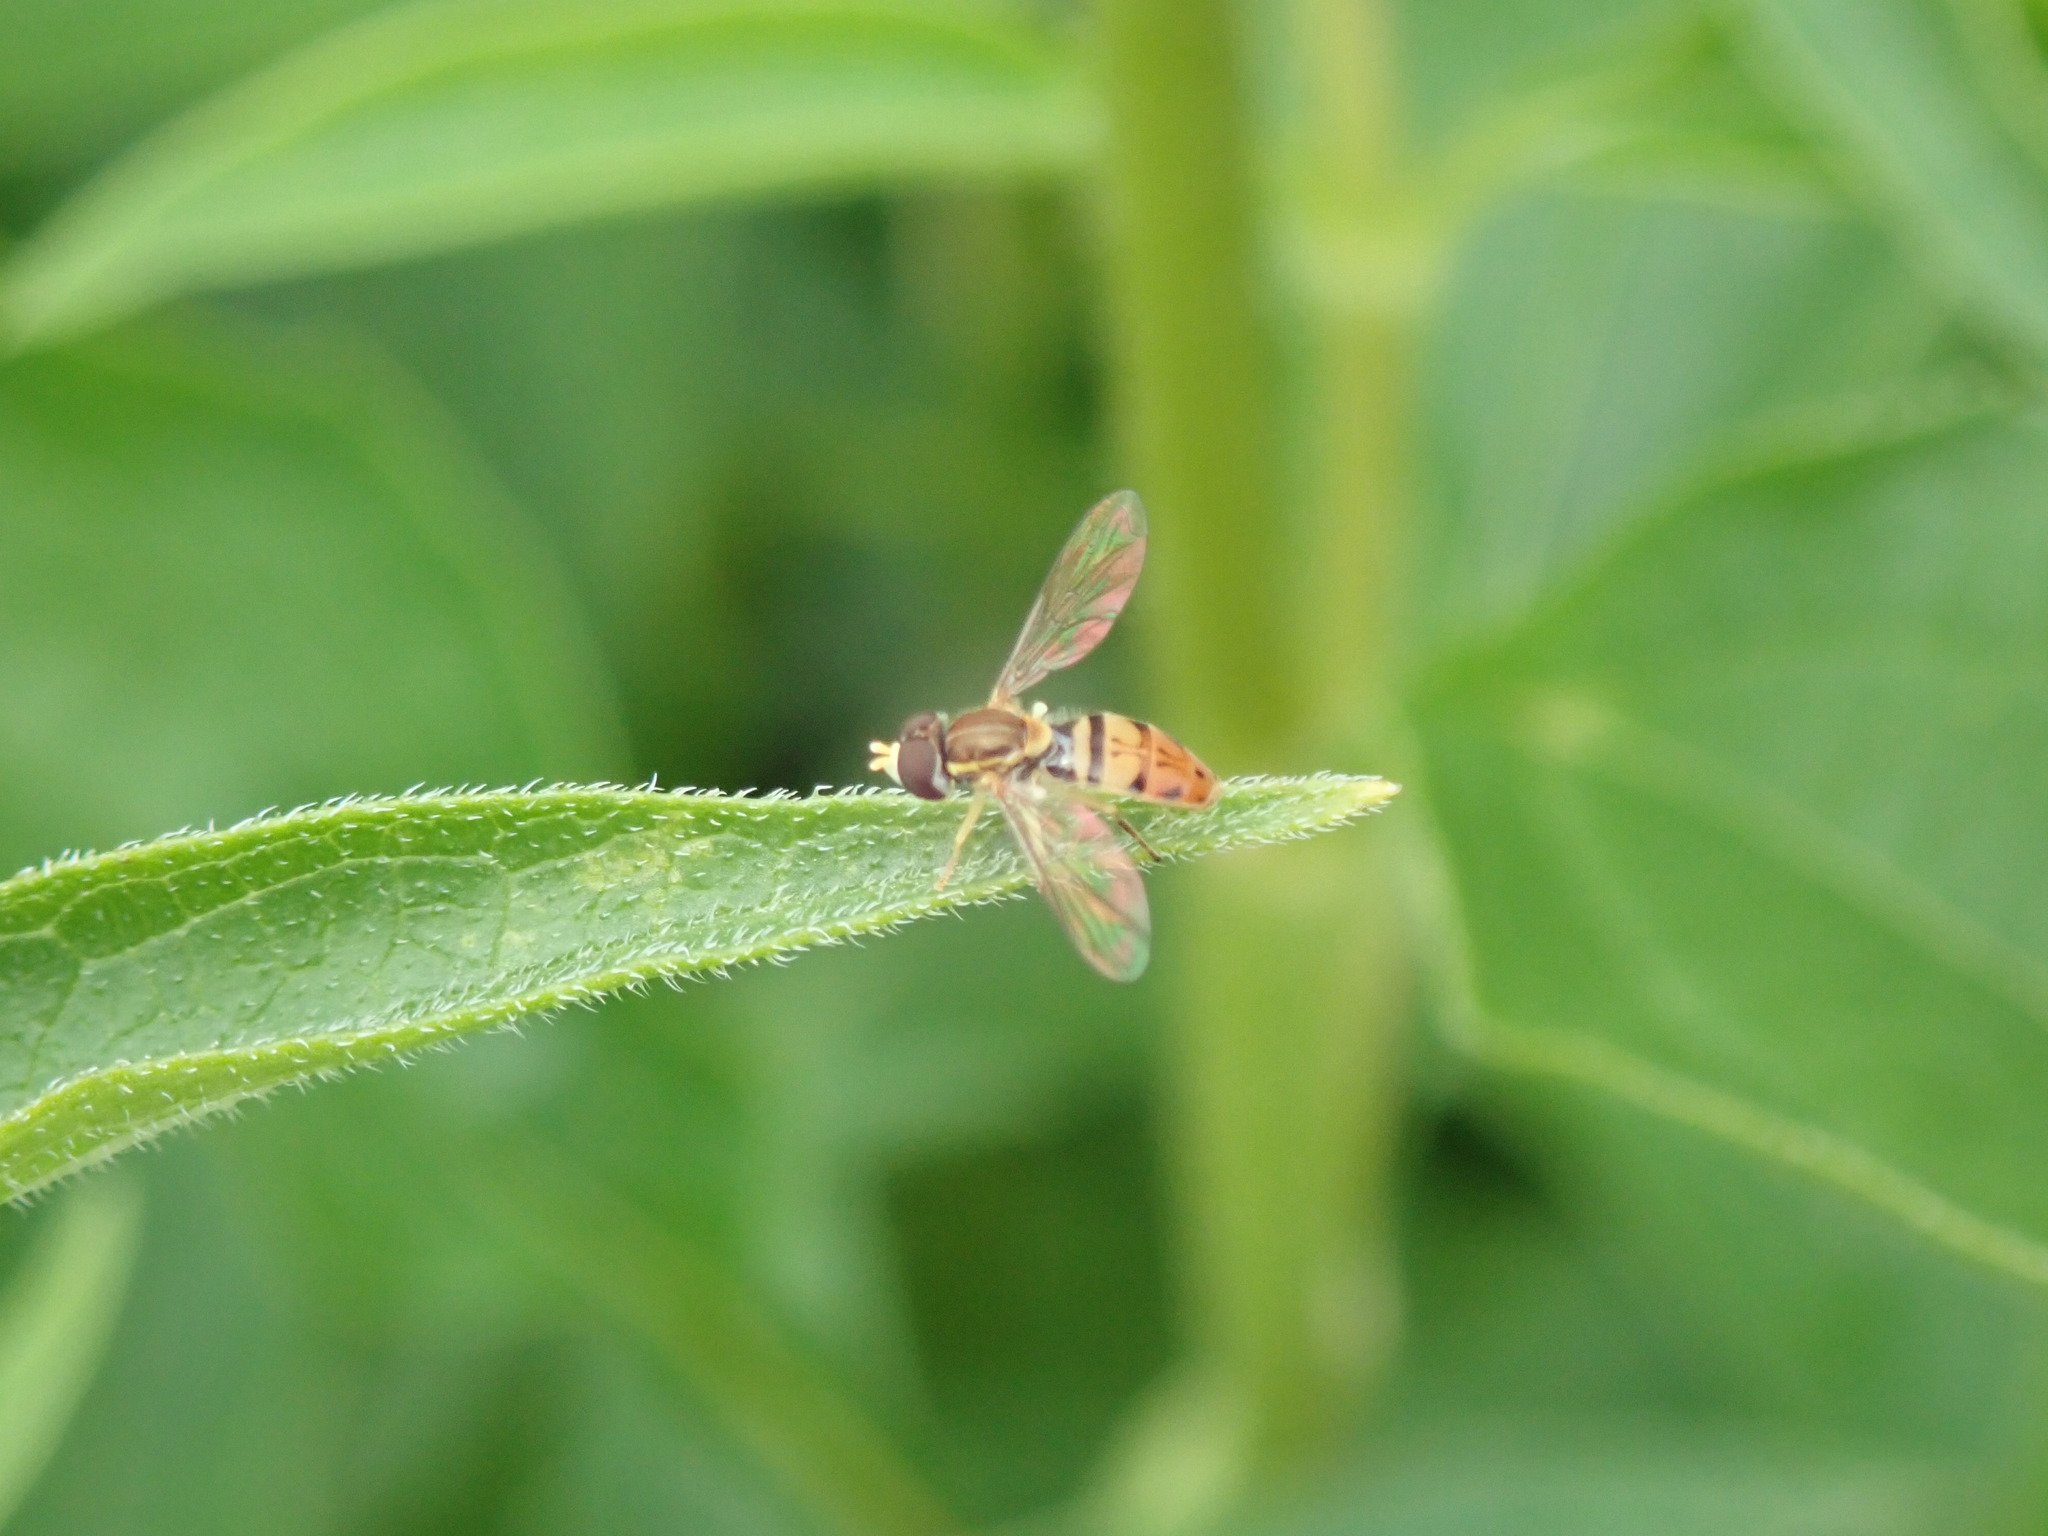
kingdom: Animalia
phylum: Arthropoda
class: Insecta
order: Diptera
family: Syrphidae
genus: Toxomerus
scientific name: Toxomerus marginatus
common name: Syrphid fly
